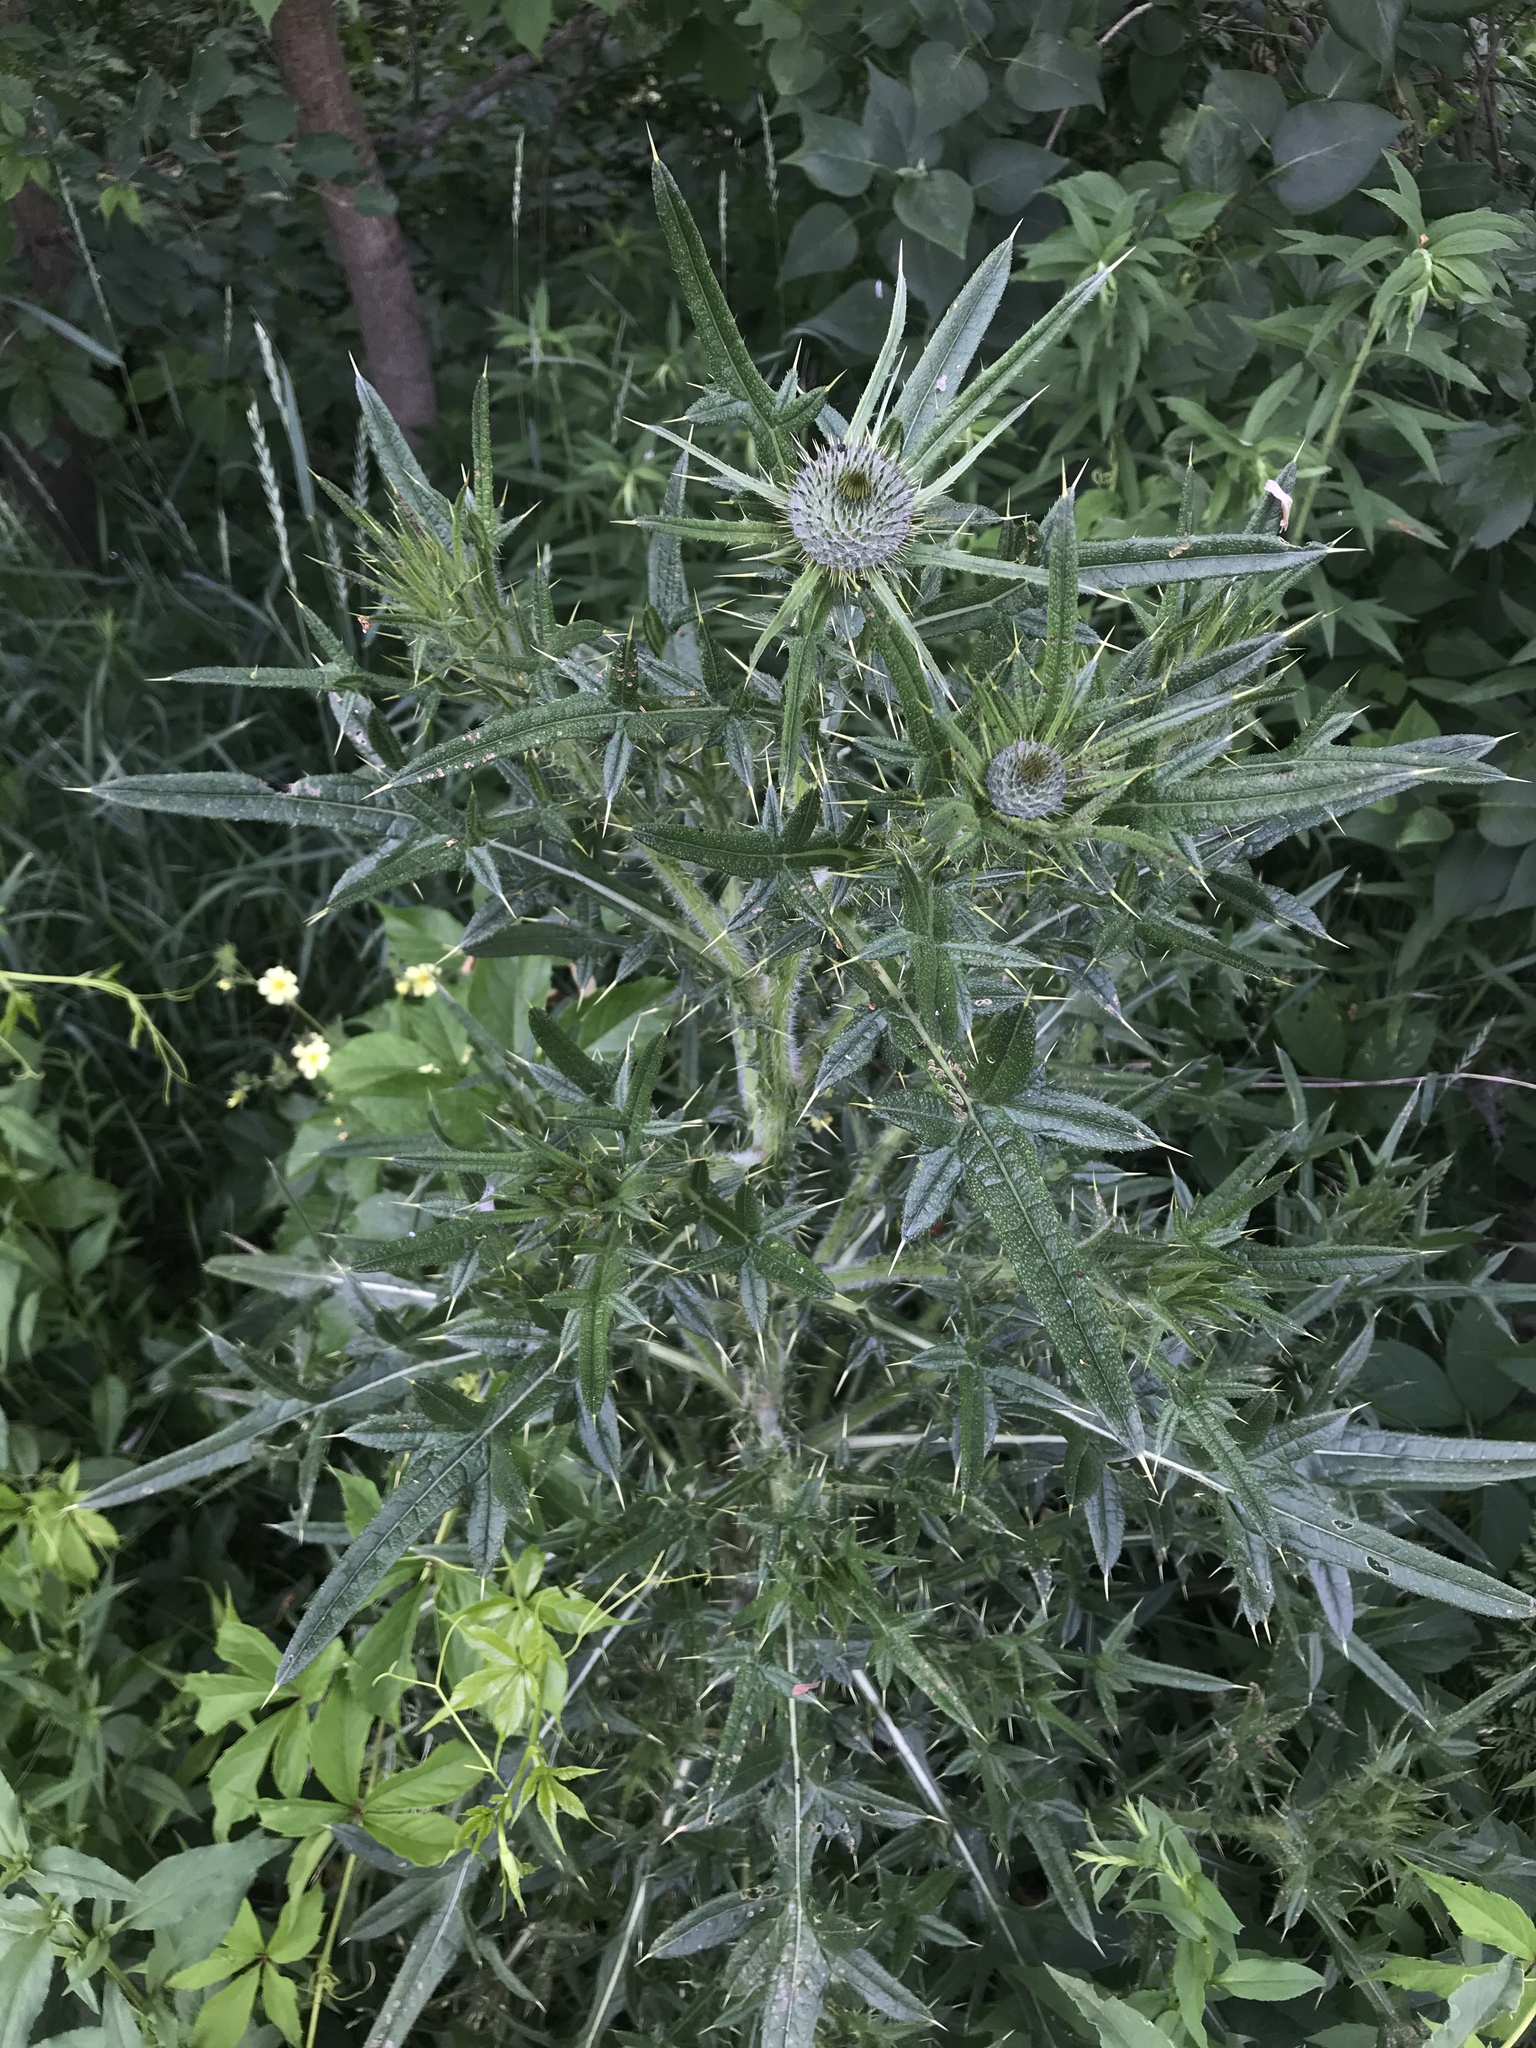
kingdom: Plantae
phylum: Tracheophyta
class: Magnoliopsida
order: Asterales
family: Asteraceae
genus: Cirsium
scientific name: Cirsium vulgare
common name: Bull thistle
